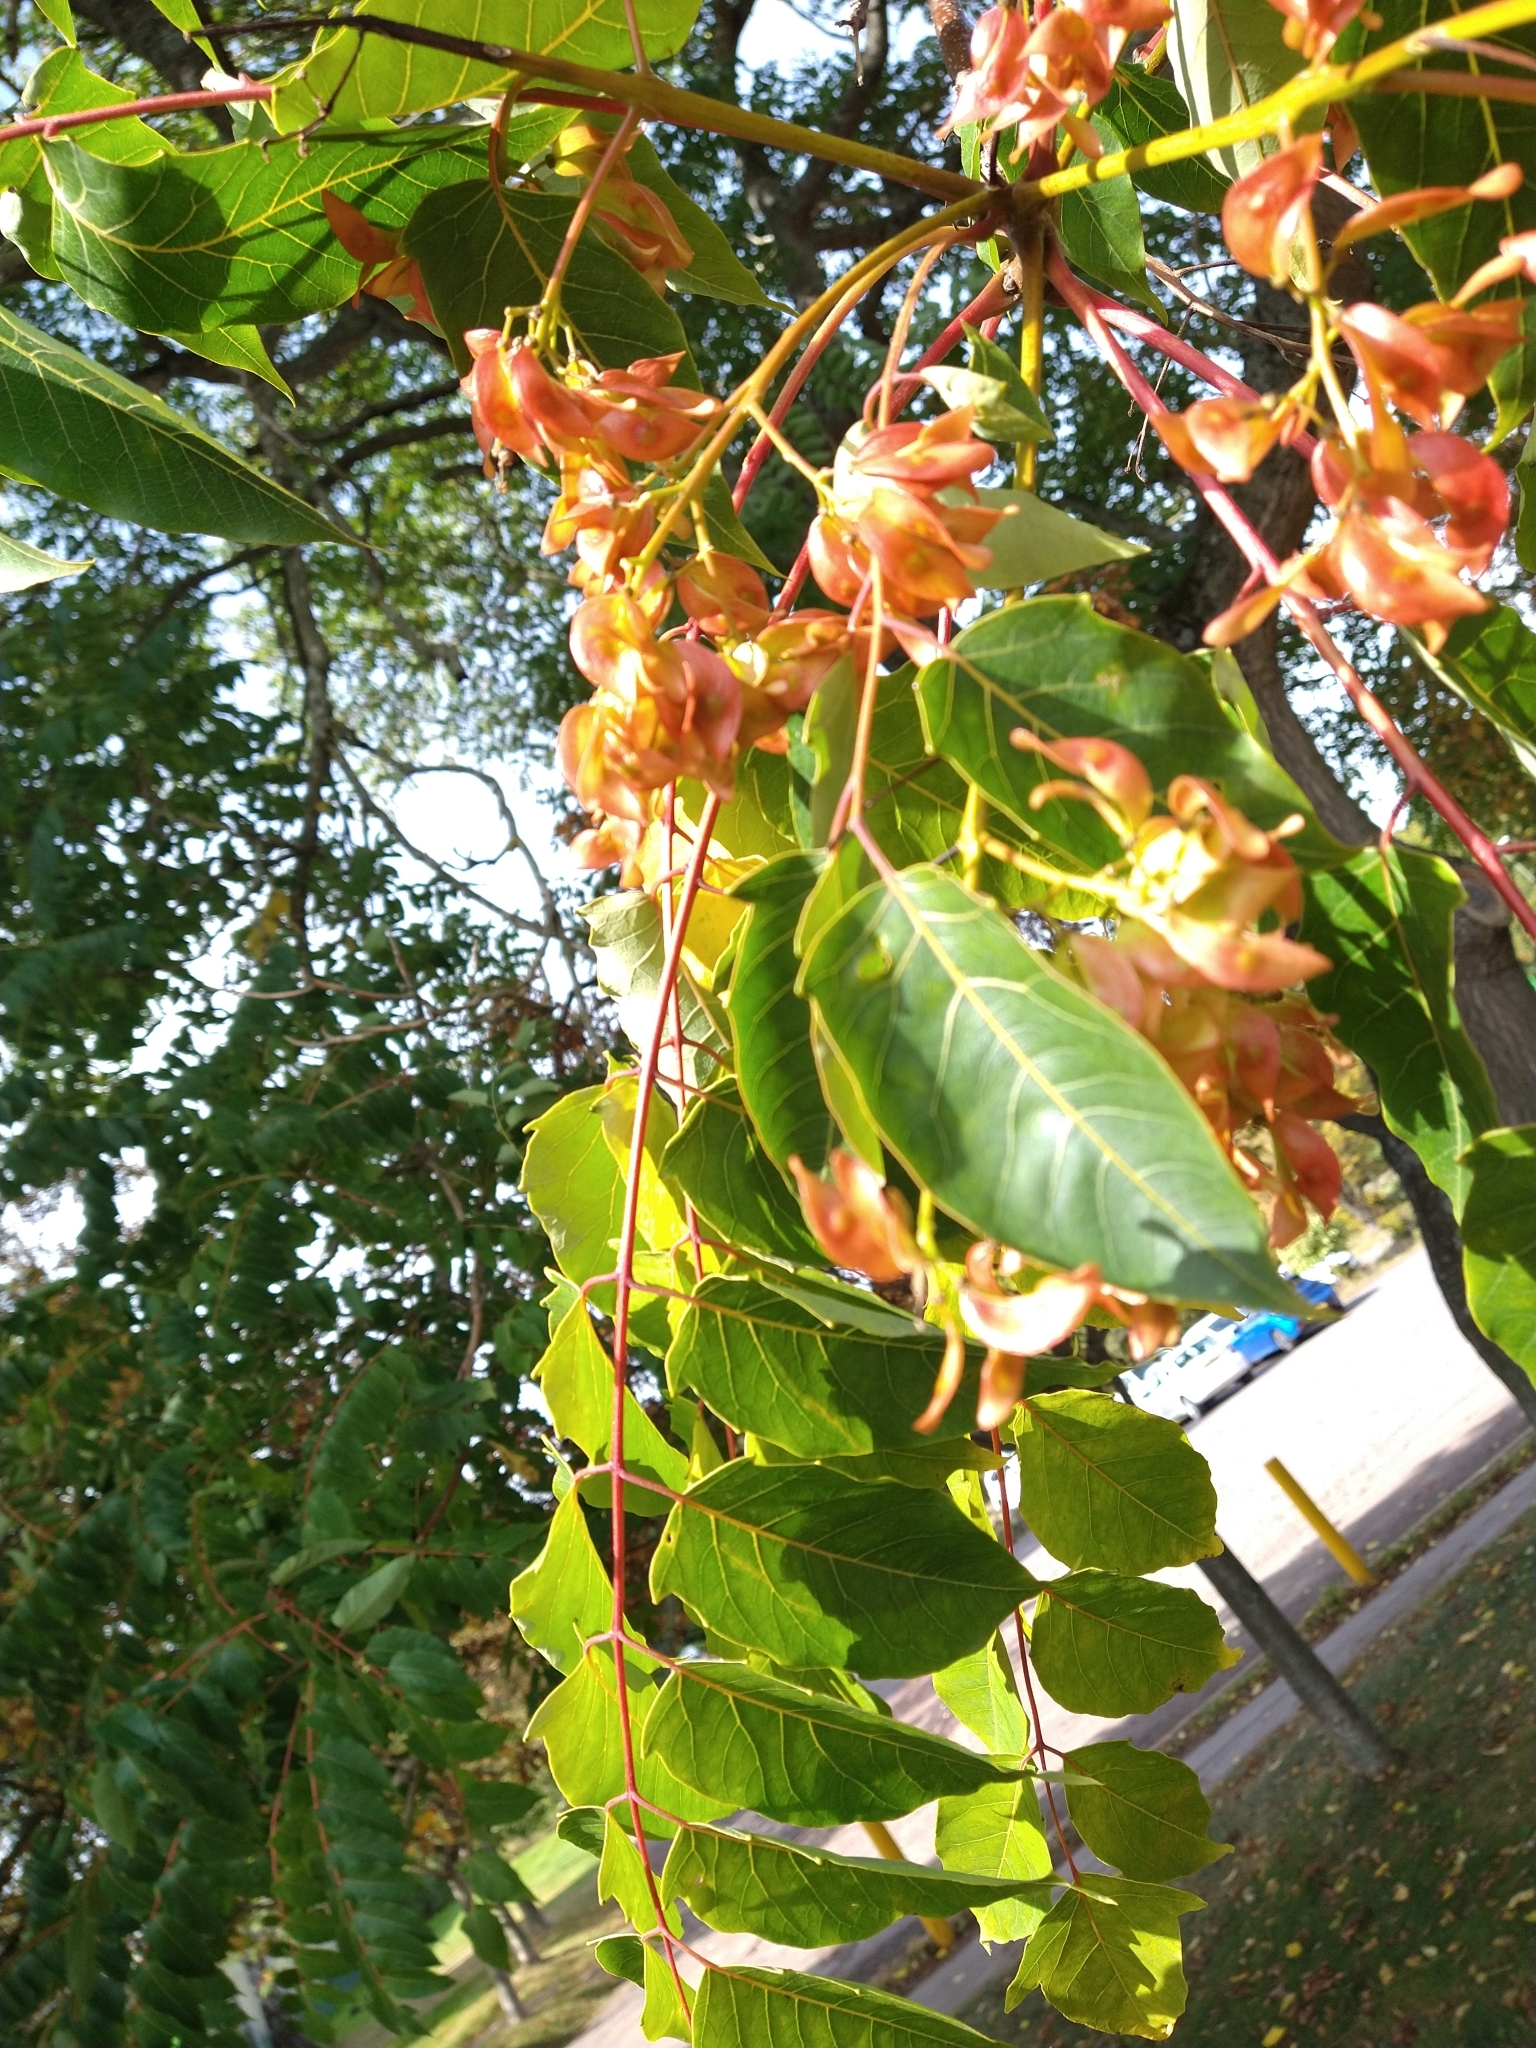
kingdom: Plantae
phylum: Tracheophyta
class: Magnoliopsida
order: Sapindales
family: Simaroubaceae
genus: Ailanthus
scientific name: Ailanthus altissima
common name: Tree-of-heaven
